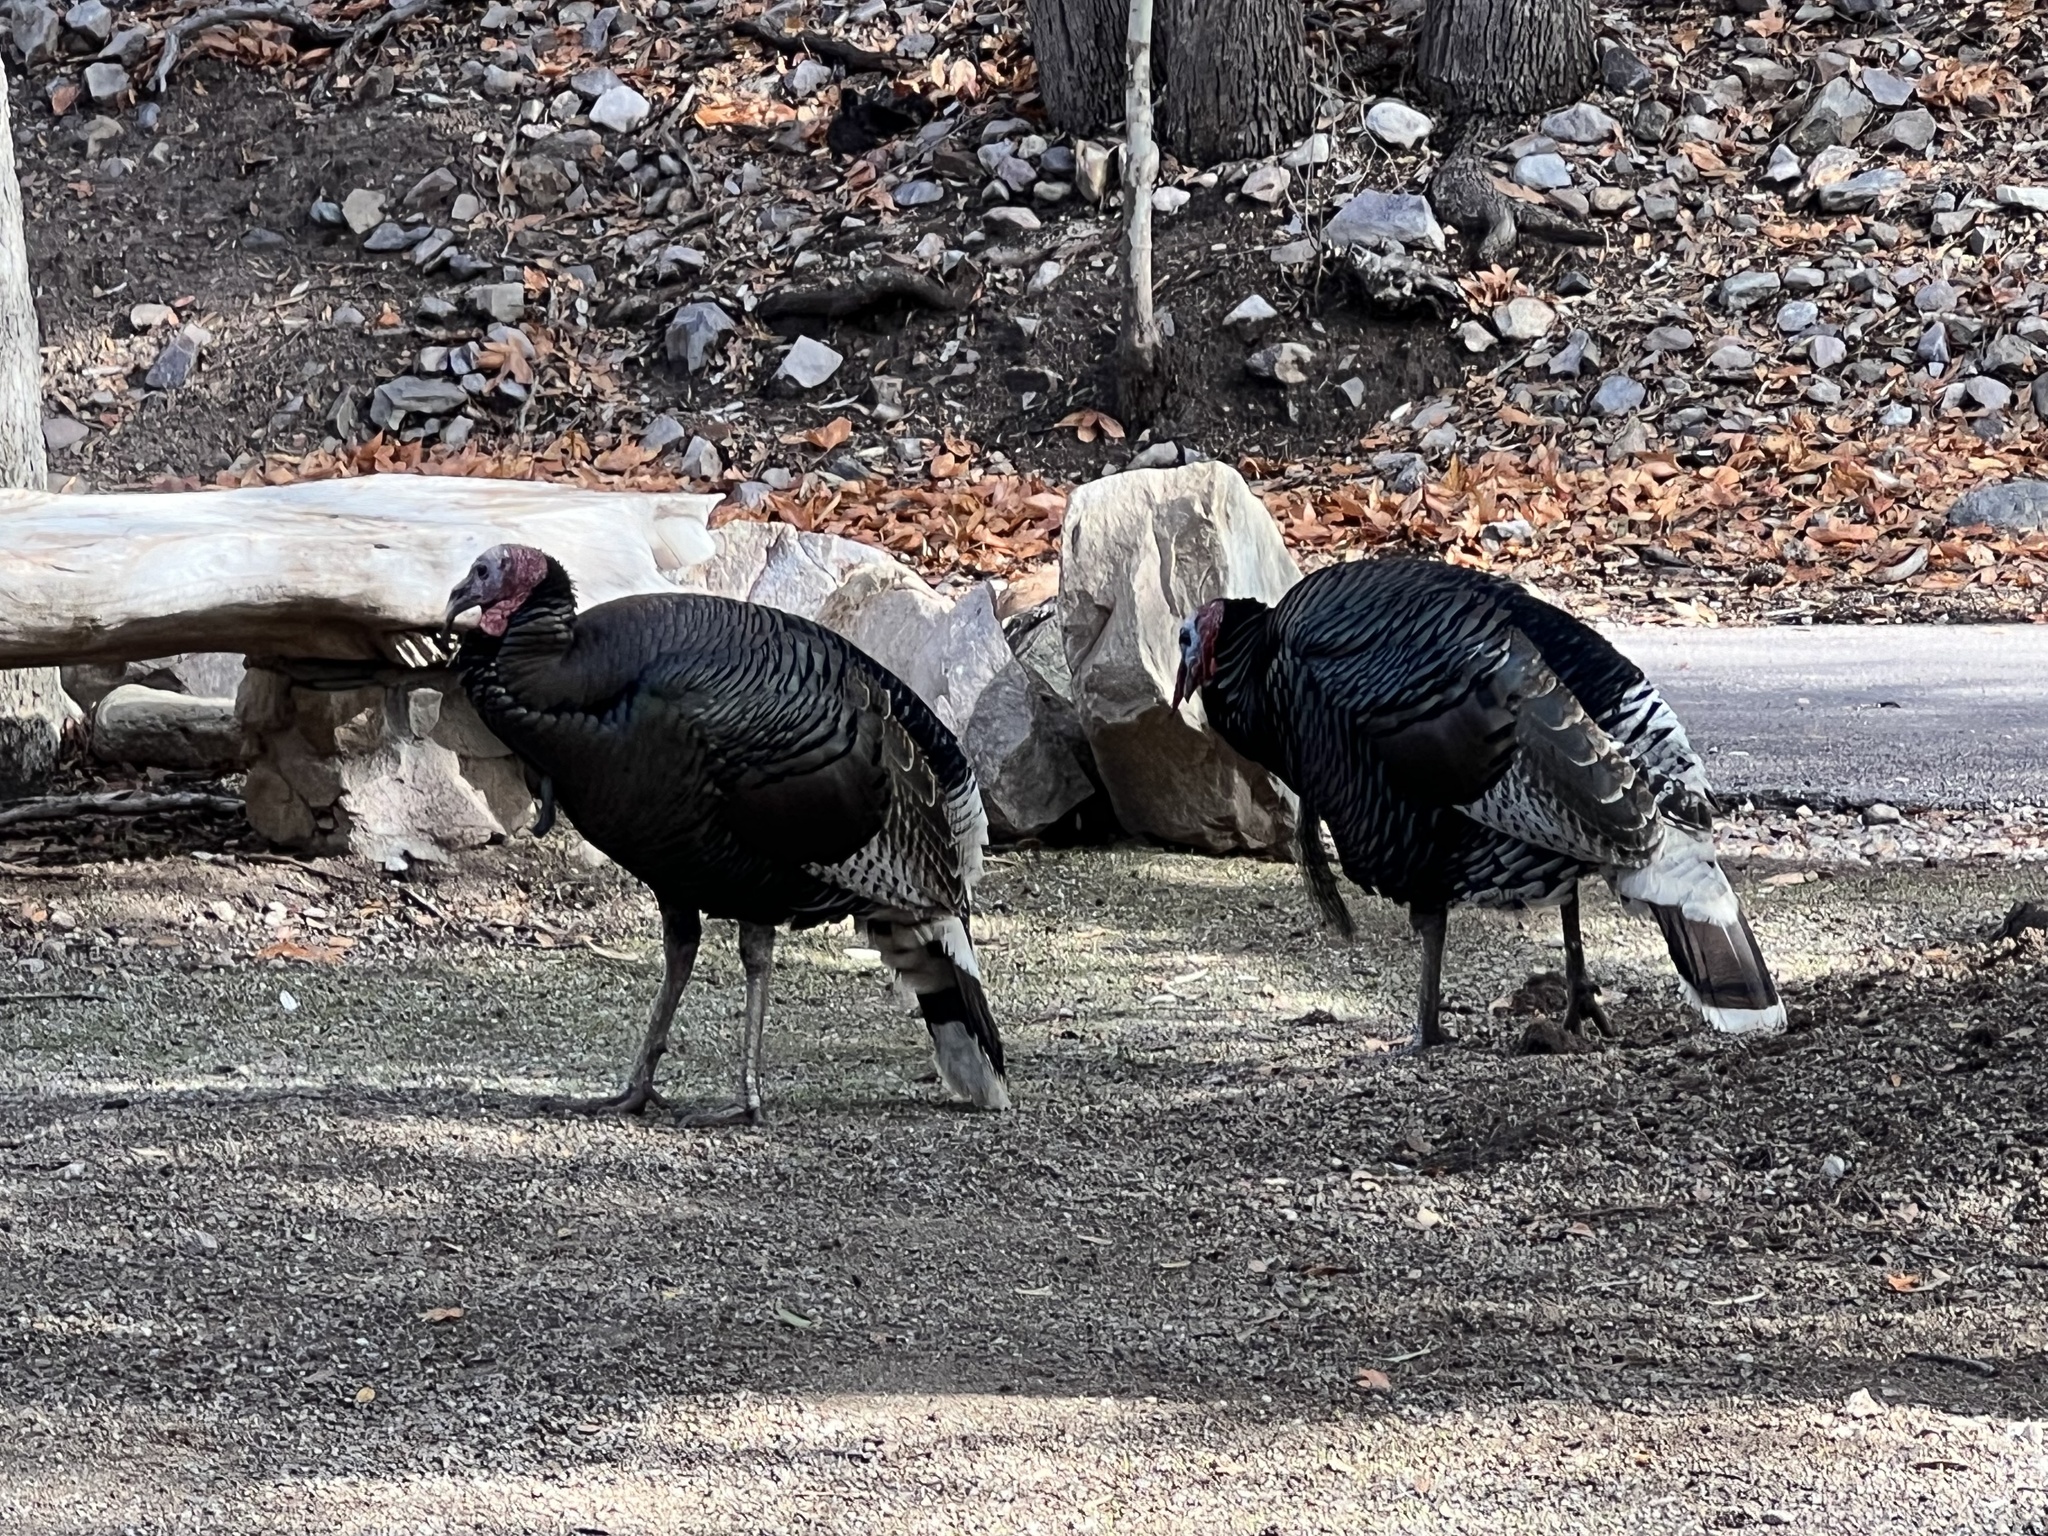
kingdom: Animalia
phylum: Chordata
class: Aves
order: Galliformes
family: Phasianidae
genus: Meleagris
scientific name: Meleagris gallopavo
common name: Wild turkey
